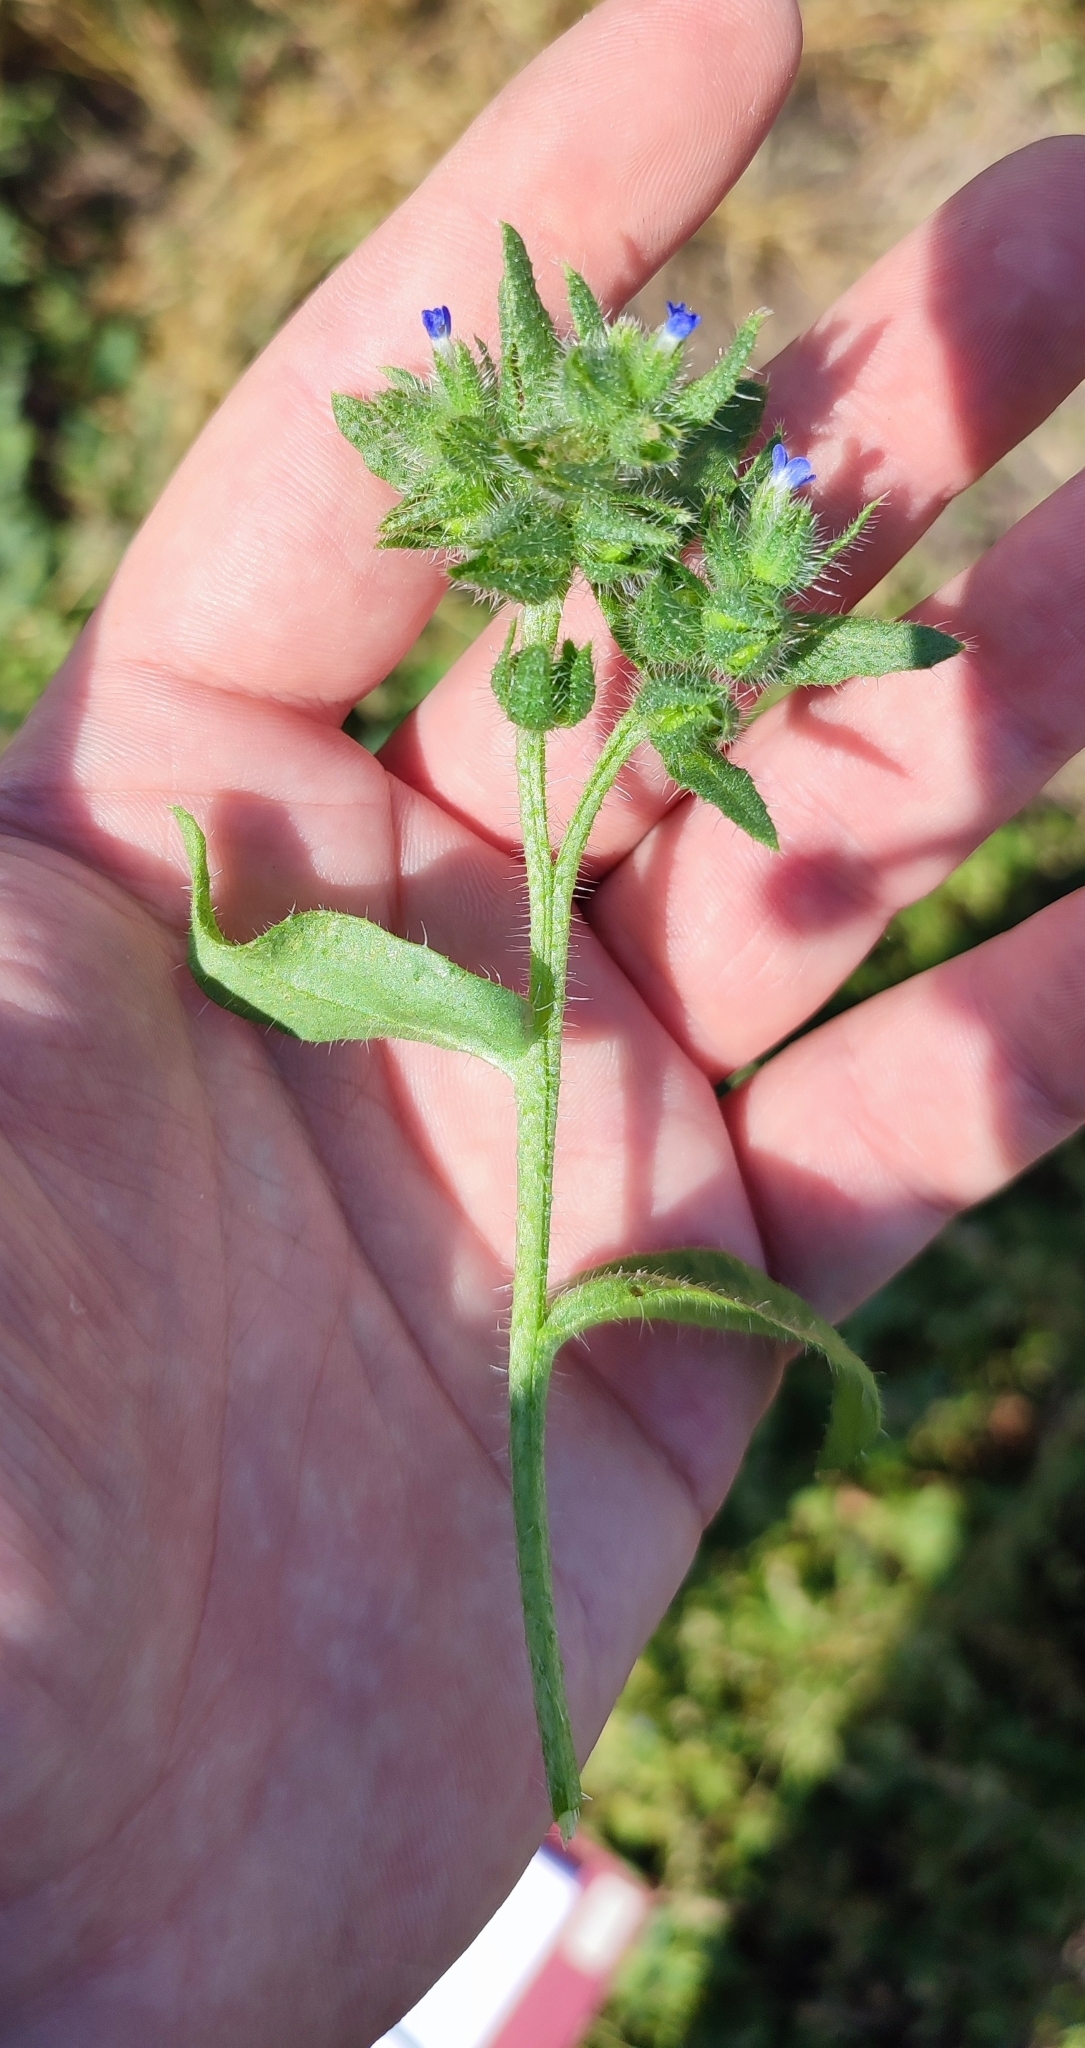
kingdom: Plantae
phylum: Tracheophyta
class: Magnoliopsida
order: Boraginales
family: Boraginaceae
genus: Lycopsis
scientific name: Lycopsis arvensis
